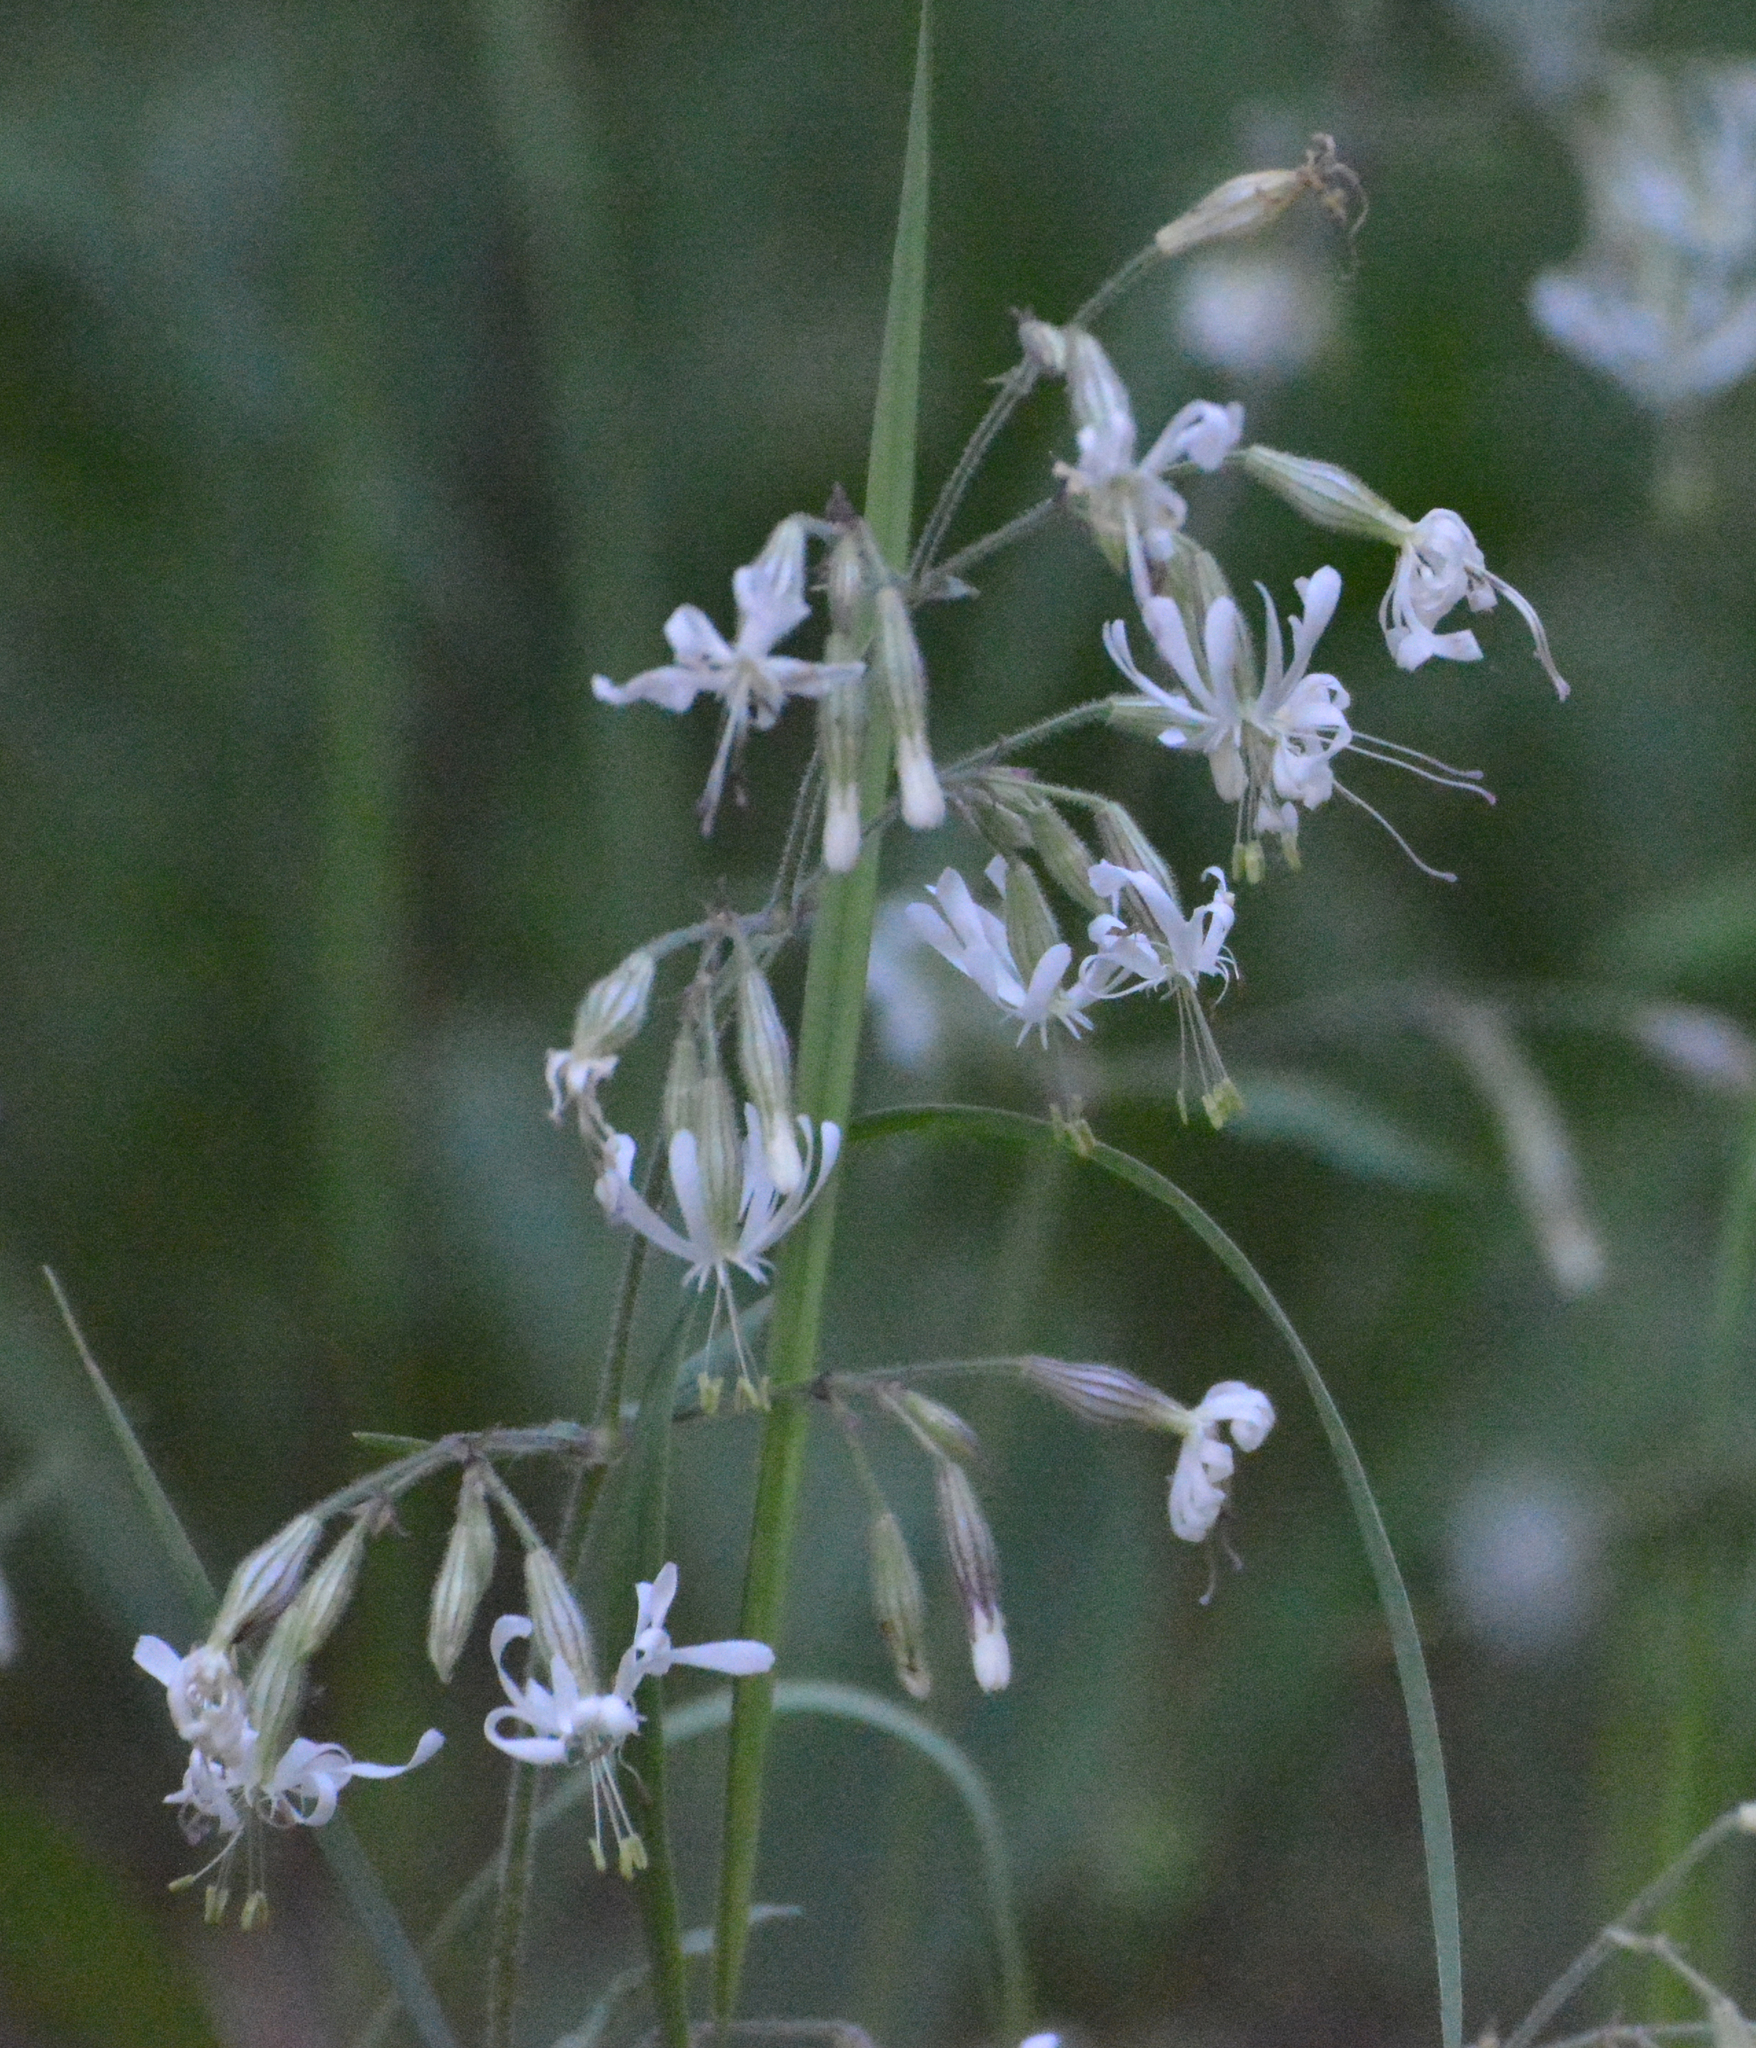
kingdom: Plantae
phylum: Tracheophyta
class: Magnoliopsida
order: Caryophyllales
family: Caryophyllaceae
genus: Silene
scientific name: Silene nutans
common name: Nottingham catchfly
